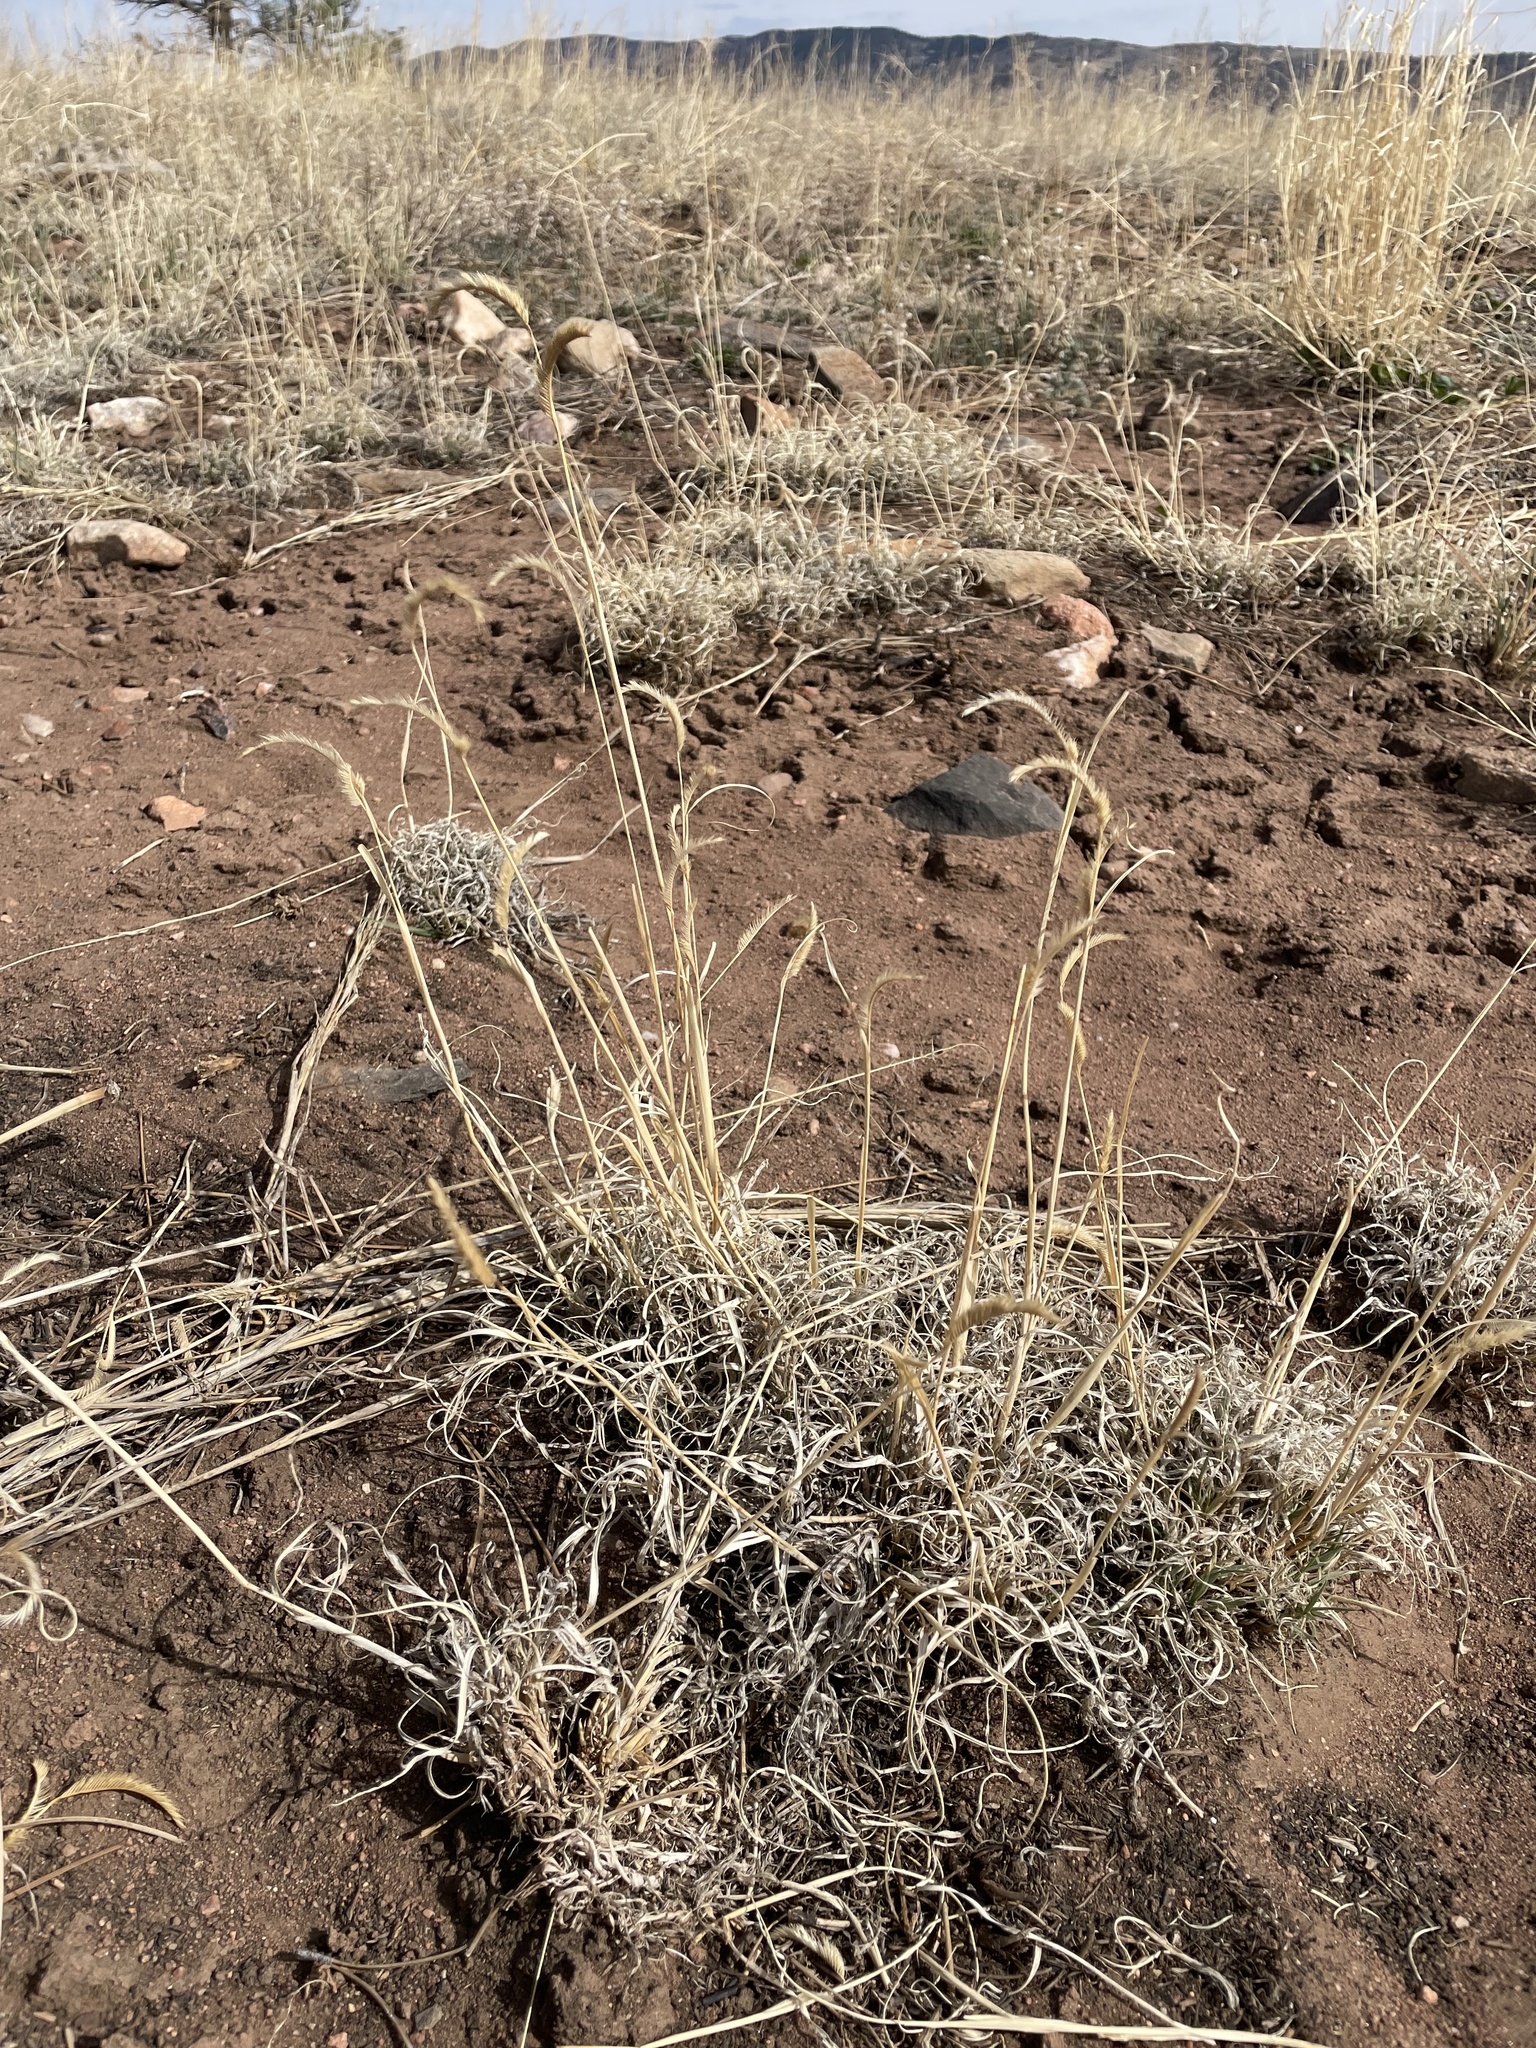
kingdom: Plantae
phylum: Tracheophyta
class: Liliopsida
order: Poales
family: Poaceae
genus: Bouteloua
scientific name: Bouteloua gracilis
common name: Blue grama
